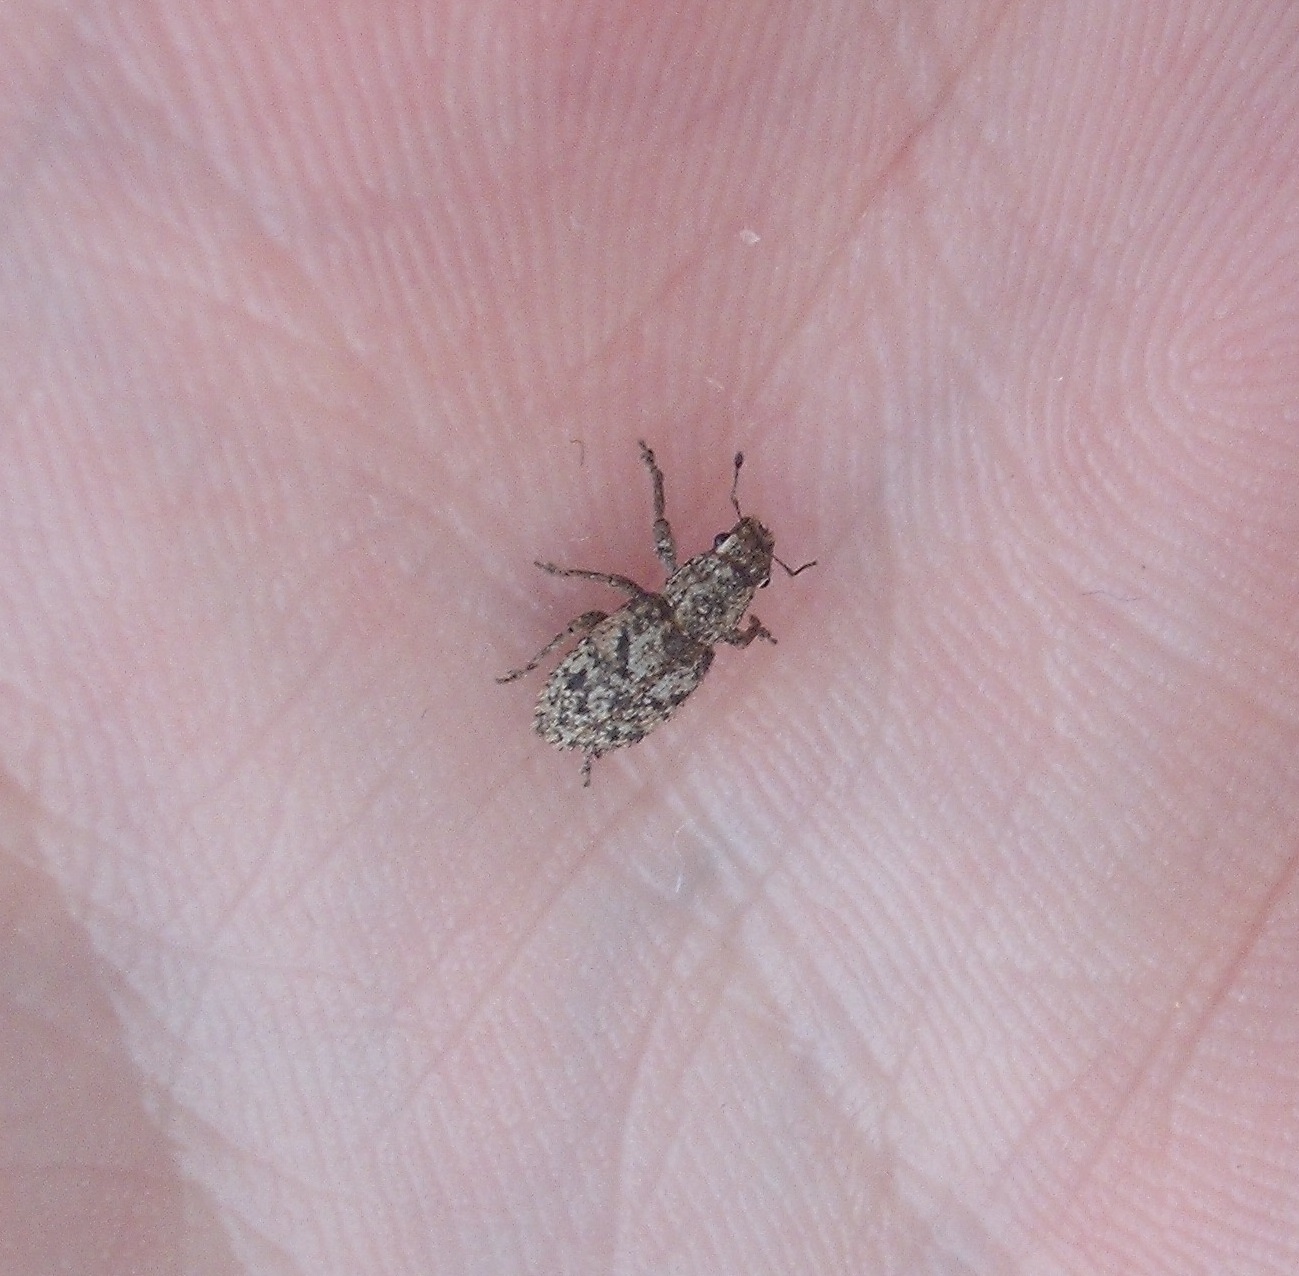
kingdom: Animalia
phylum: Arthropoda
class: Insecta
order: Coleoptera
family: Curculionidae
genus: Floresianus
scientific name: Floresianus sordidus
